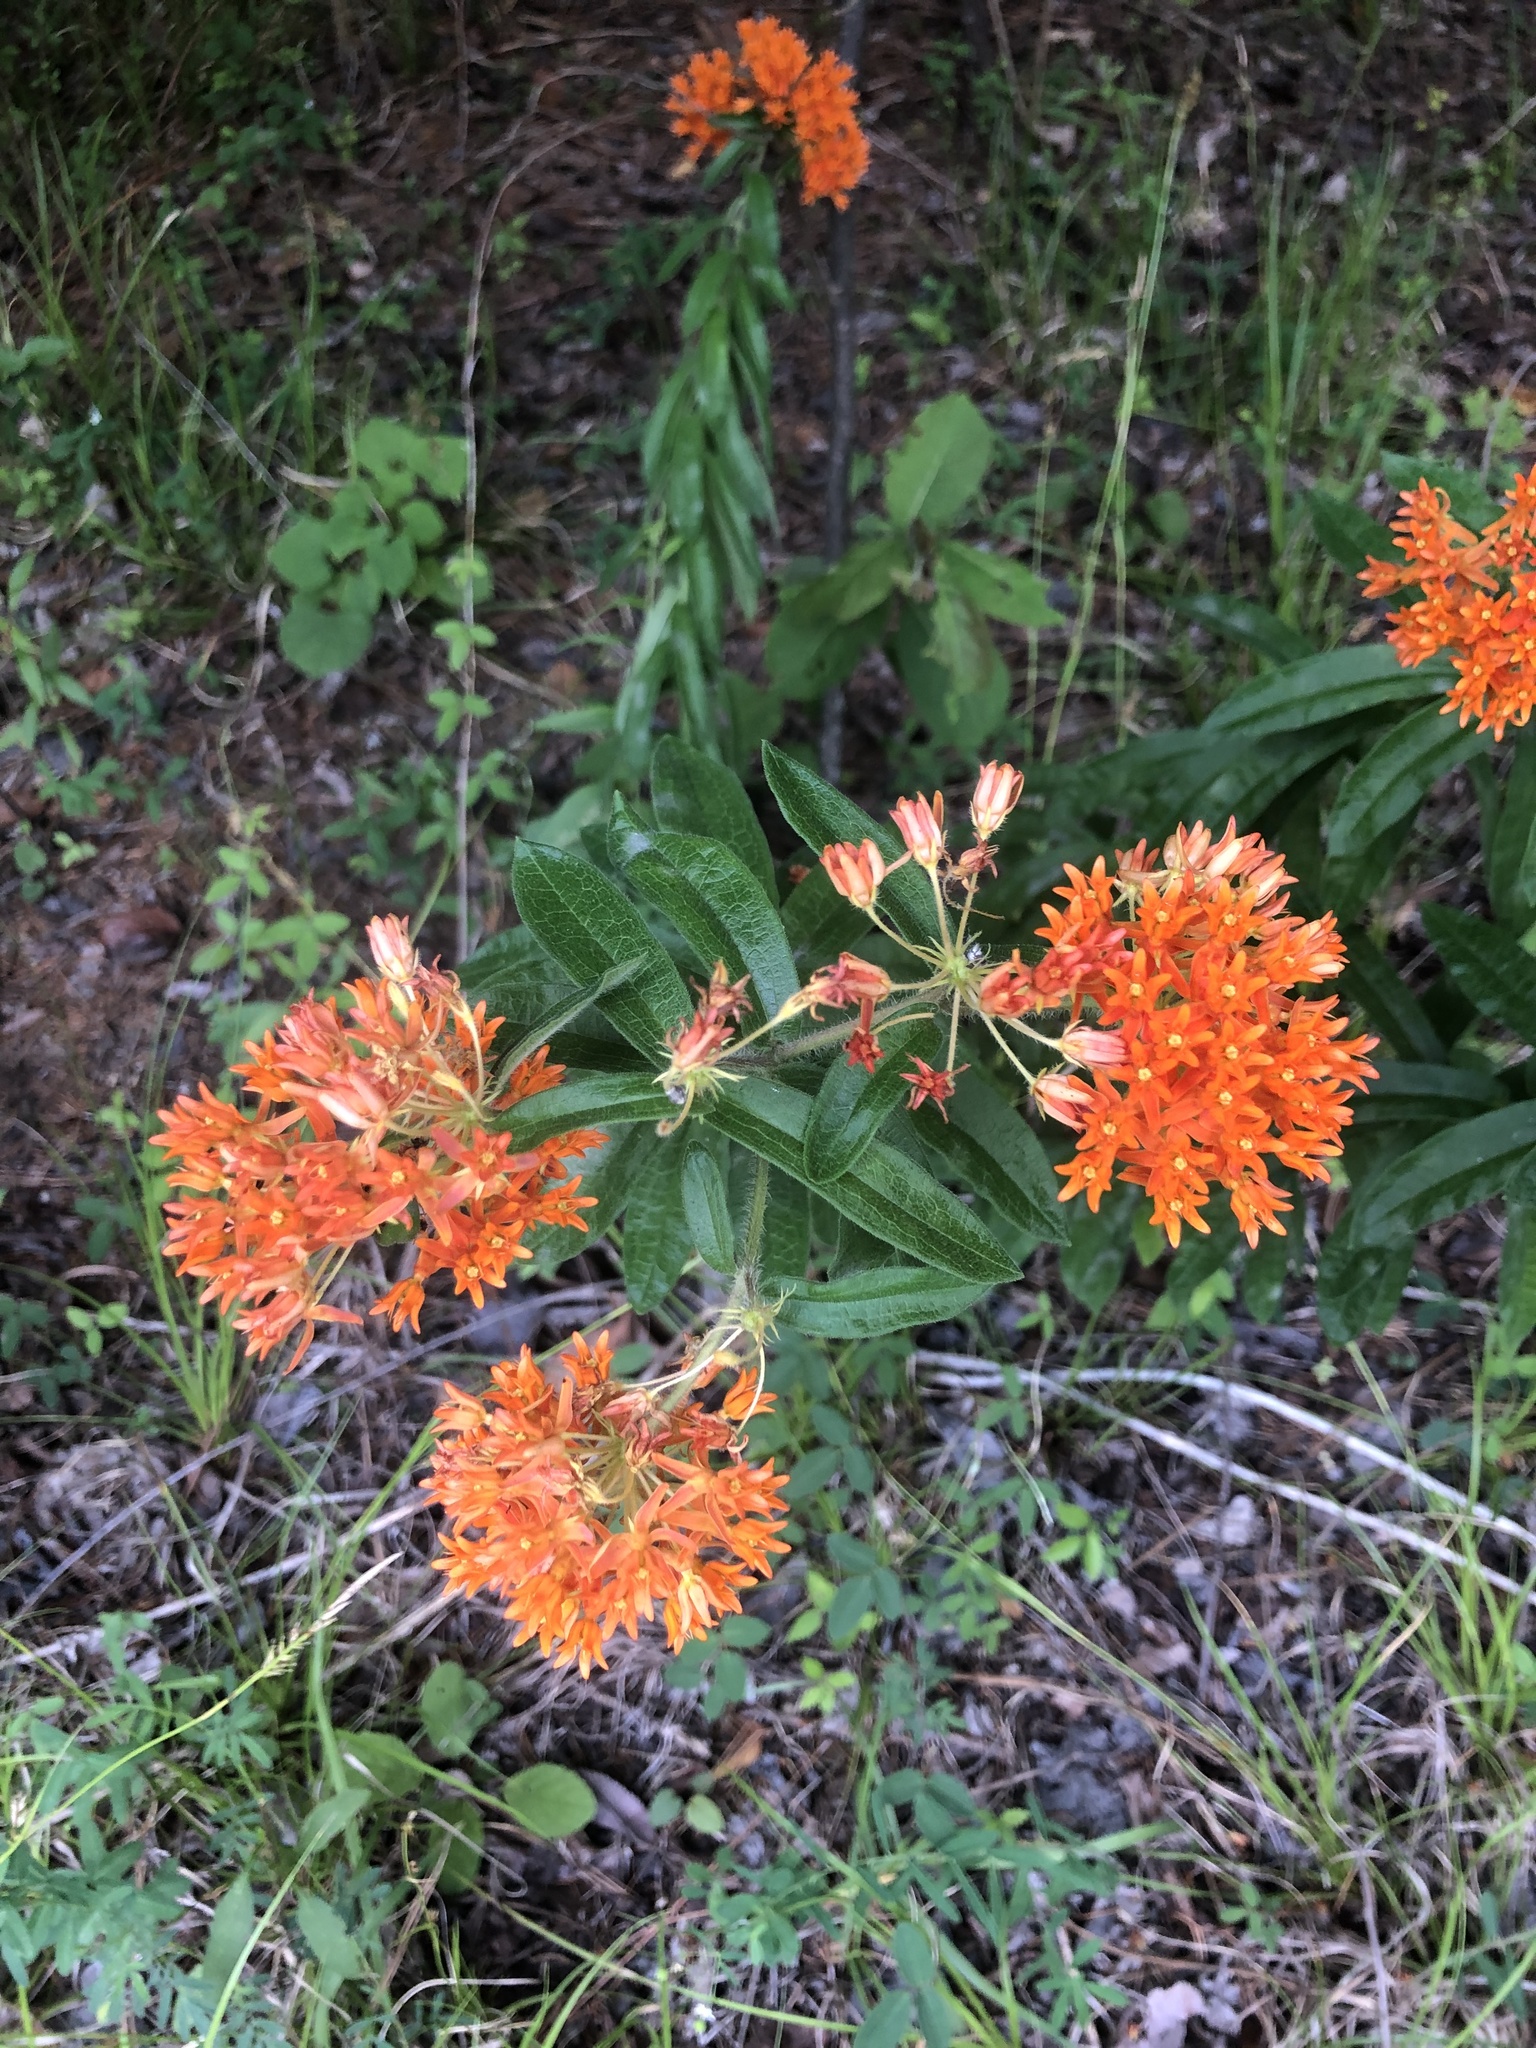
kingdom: Plantae
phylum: Tracheophyta
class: Magnoliopsida
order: Gentianales
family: Apocynaceae
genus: Asclepias
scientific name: Asclepias tuberosa
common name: Butterfly milkweed
